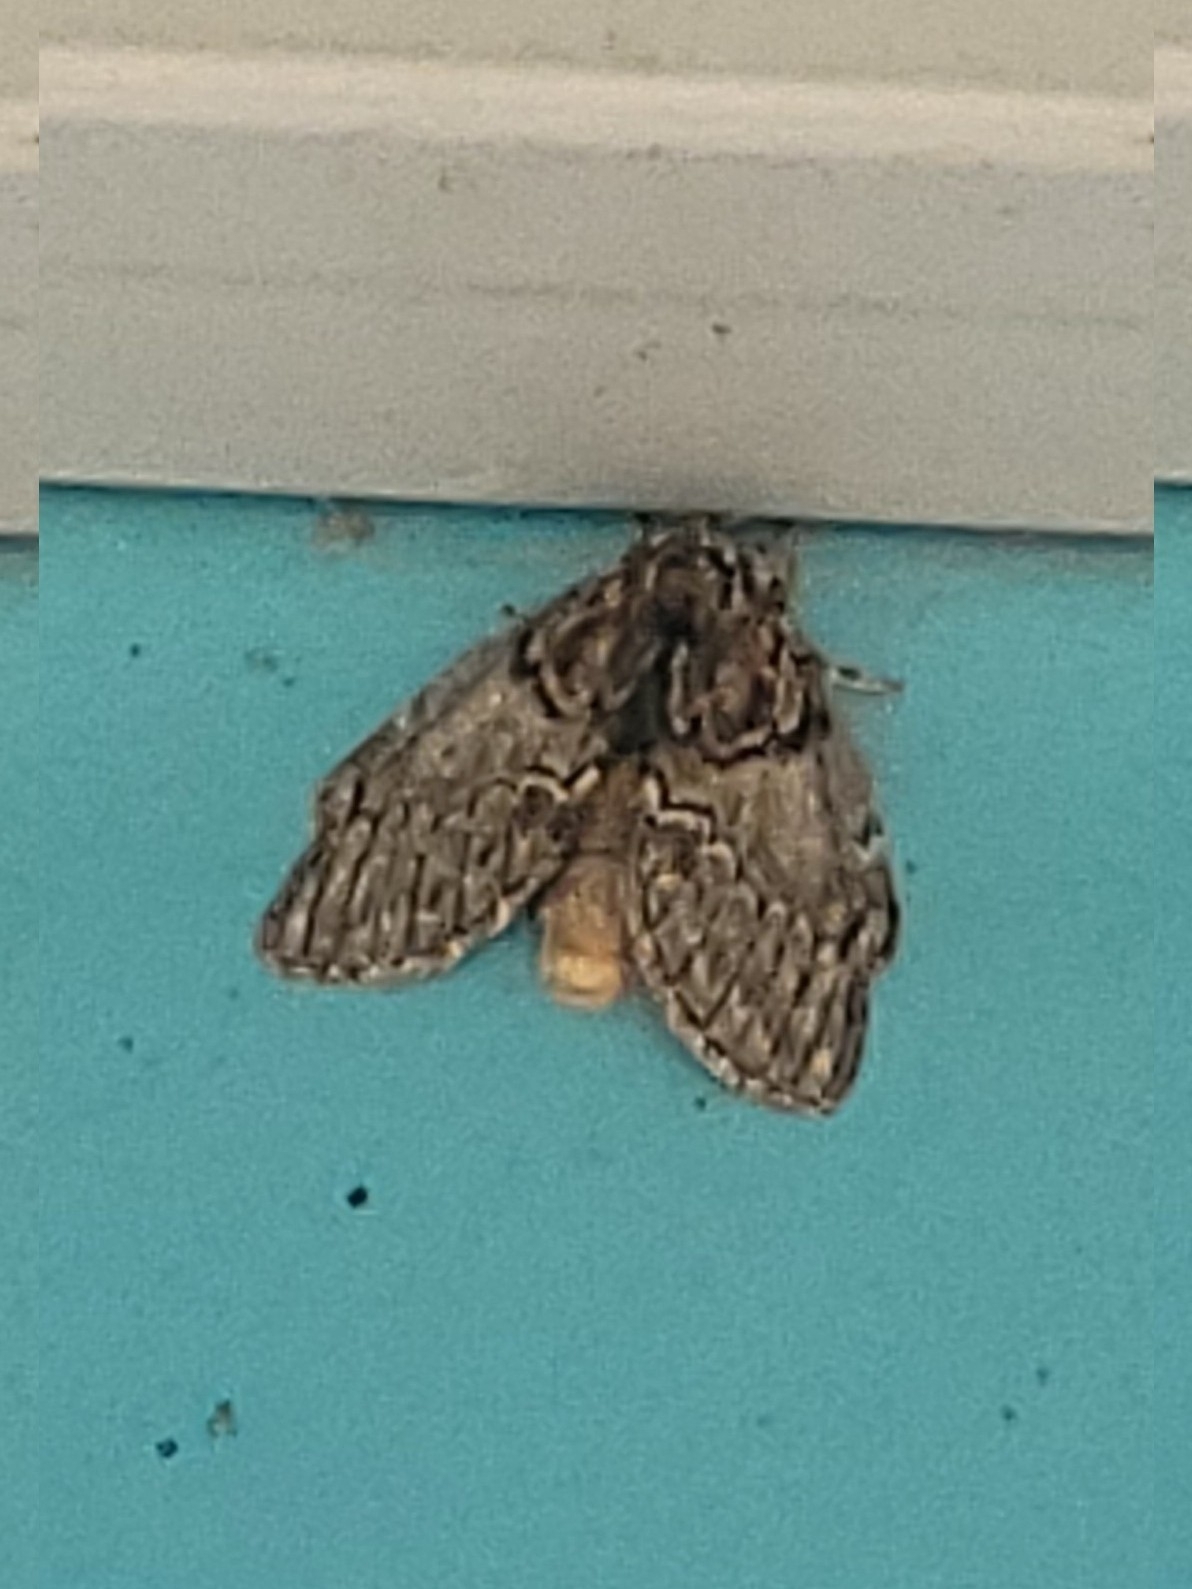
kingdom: Animalia
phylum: Arthropoda
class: Insecta
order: Lepidoptera
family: Notodontidae
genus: Peridea
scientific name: Peridea basitriens
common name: Oval-based prominent
